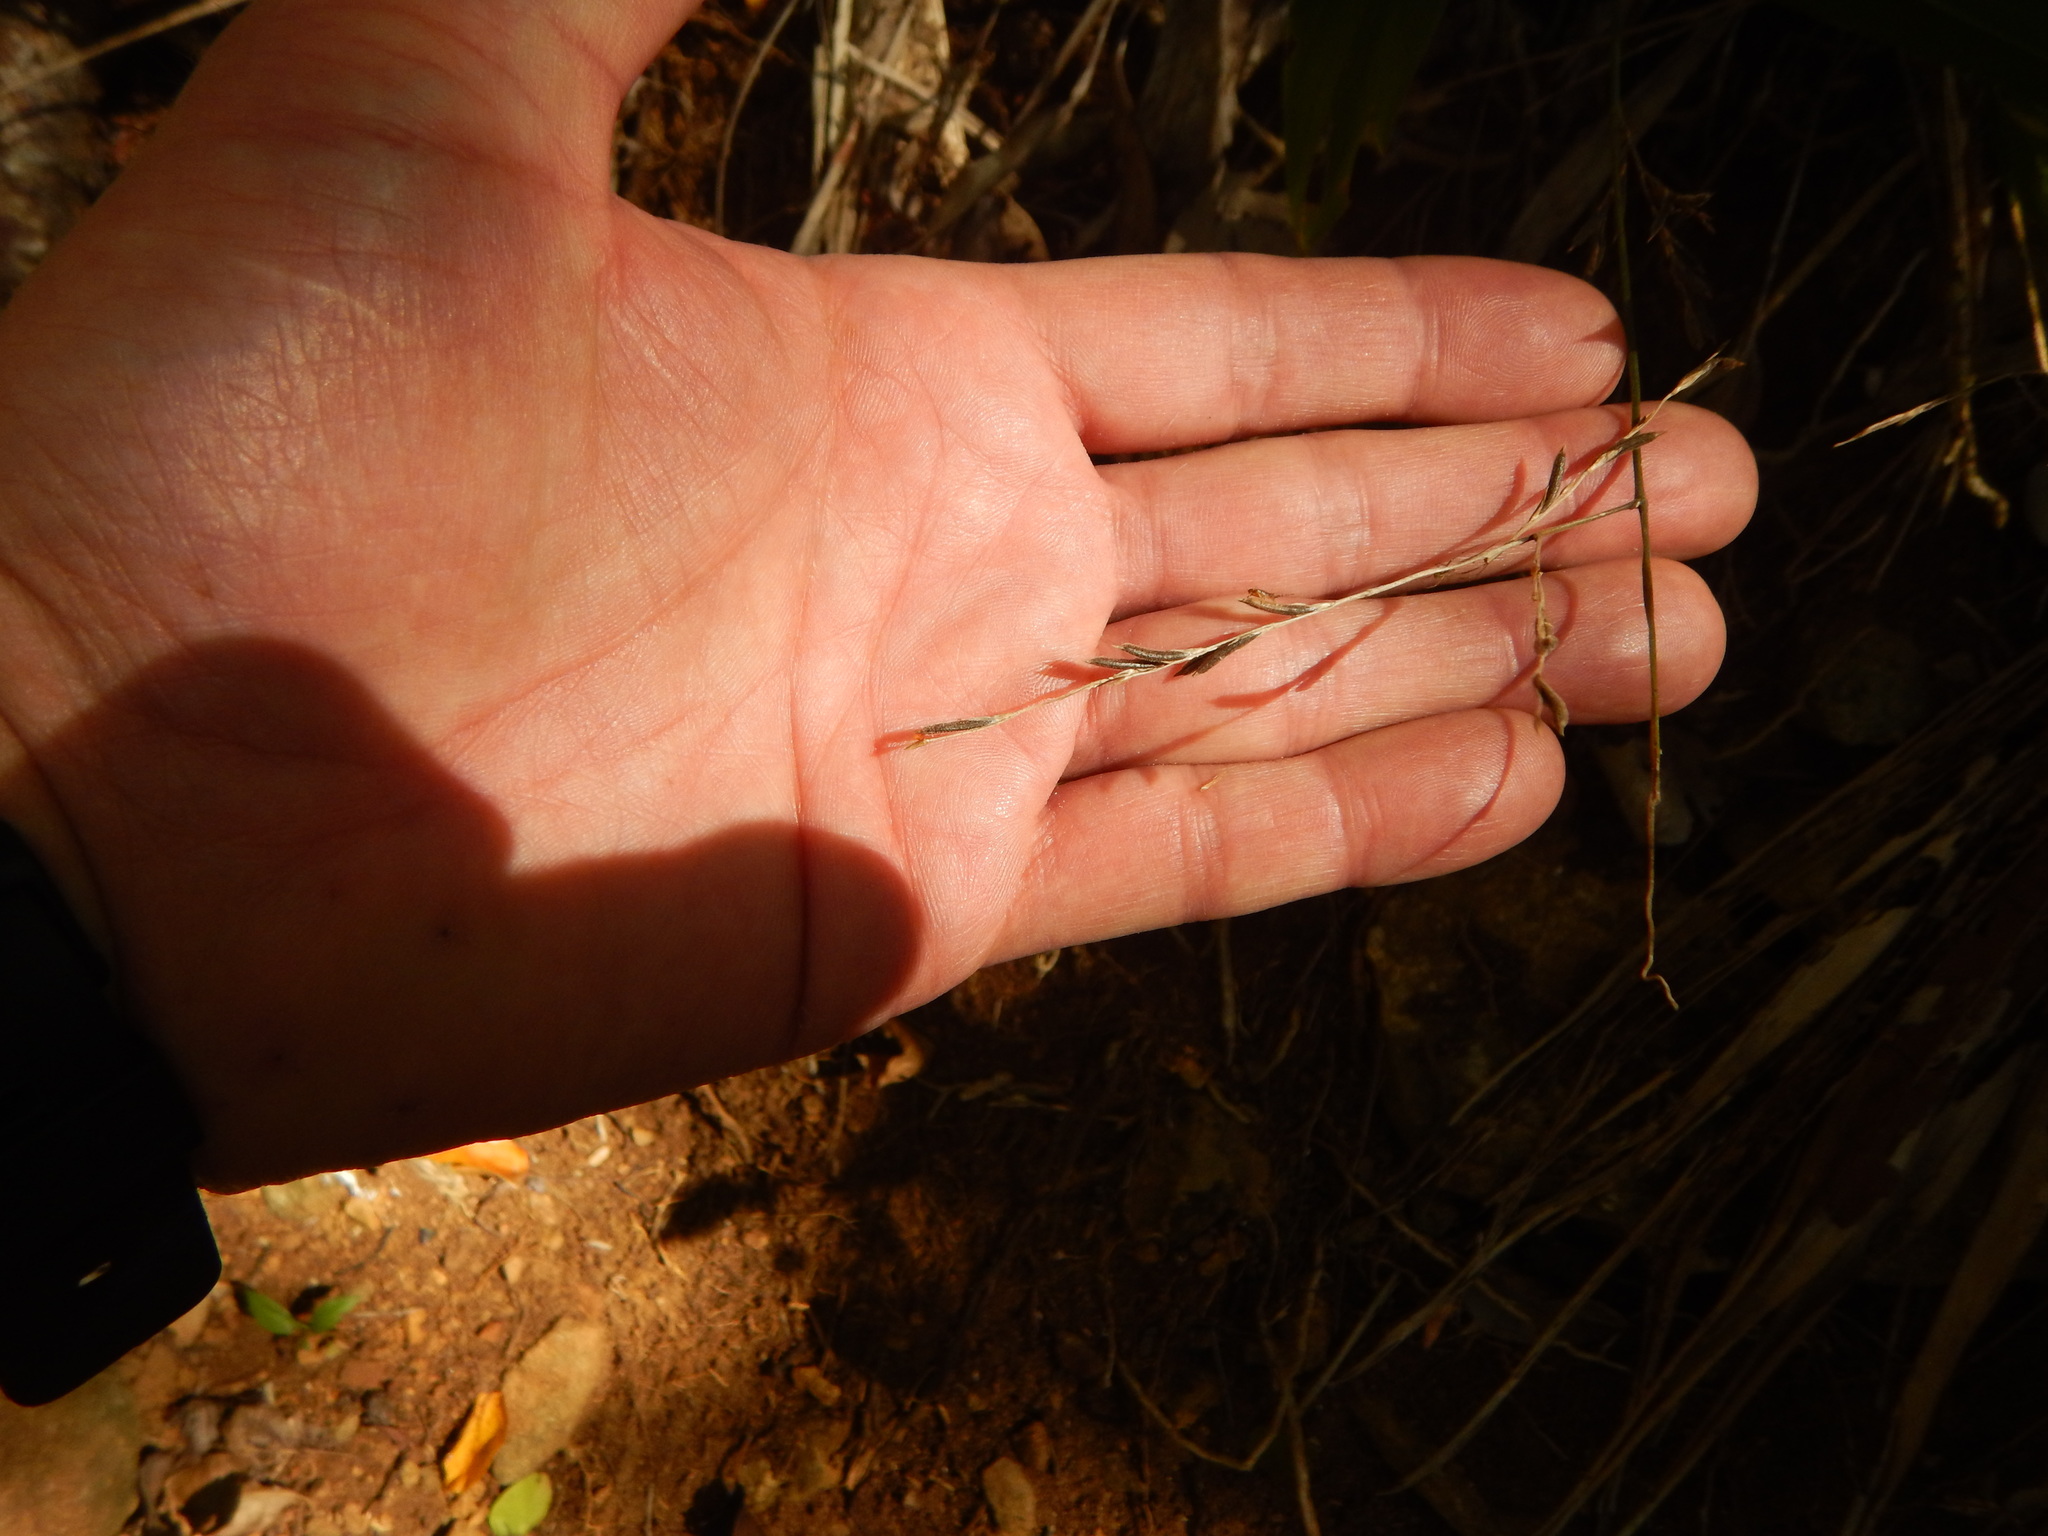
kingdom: Plantae
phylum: Tracheophyta
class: Liliopsida
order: Poales
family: Poaceae
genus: Pharus
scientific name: Pharus lappulaceus
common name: Creeping leafstalk grass
